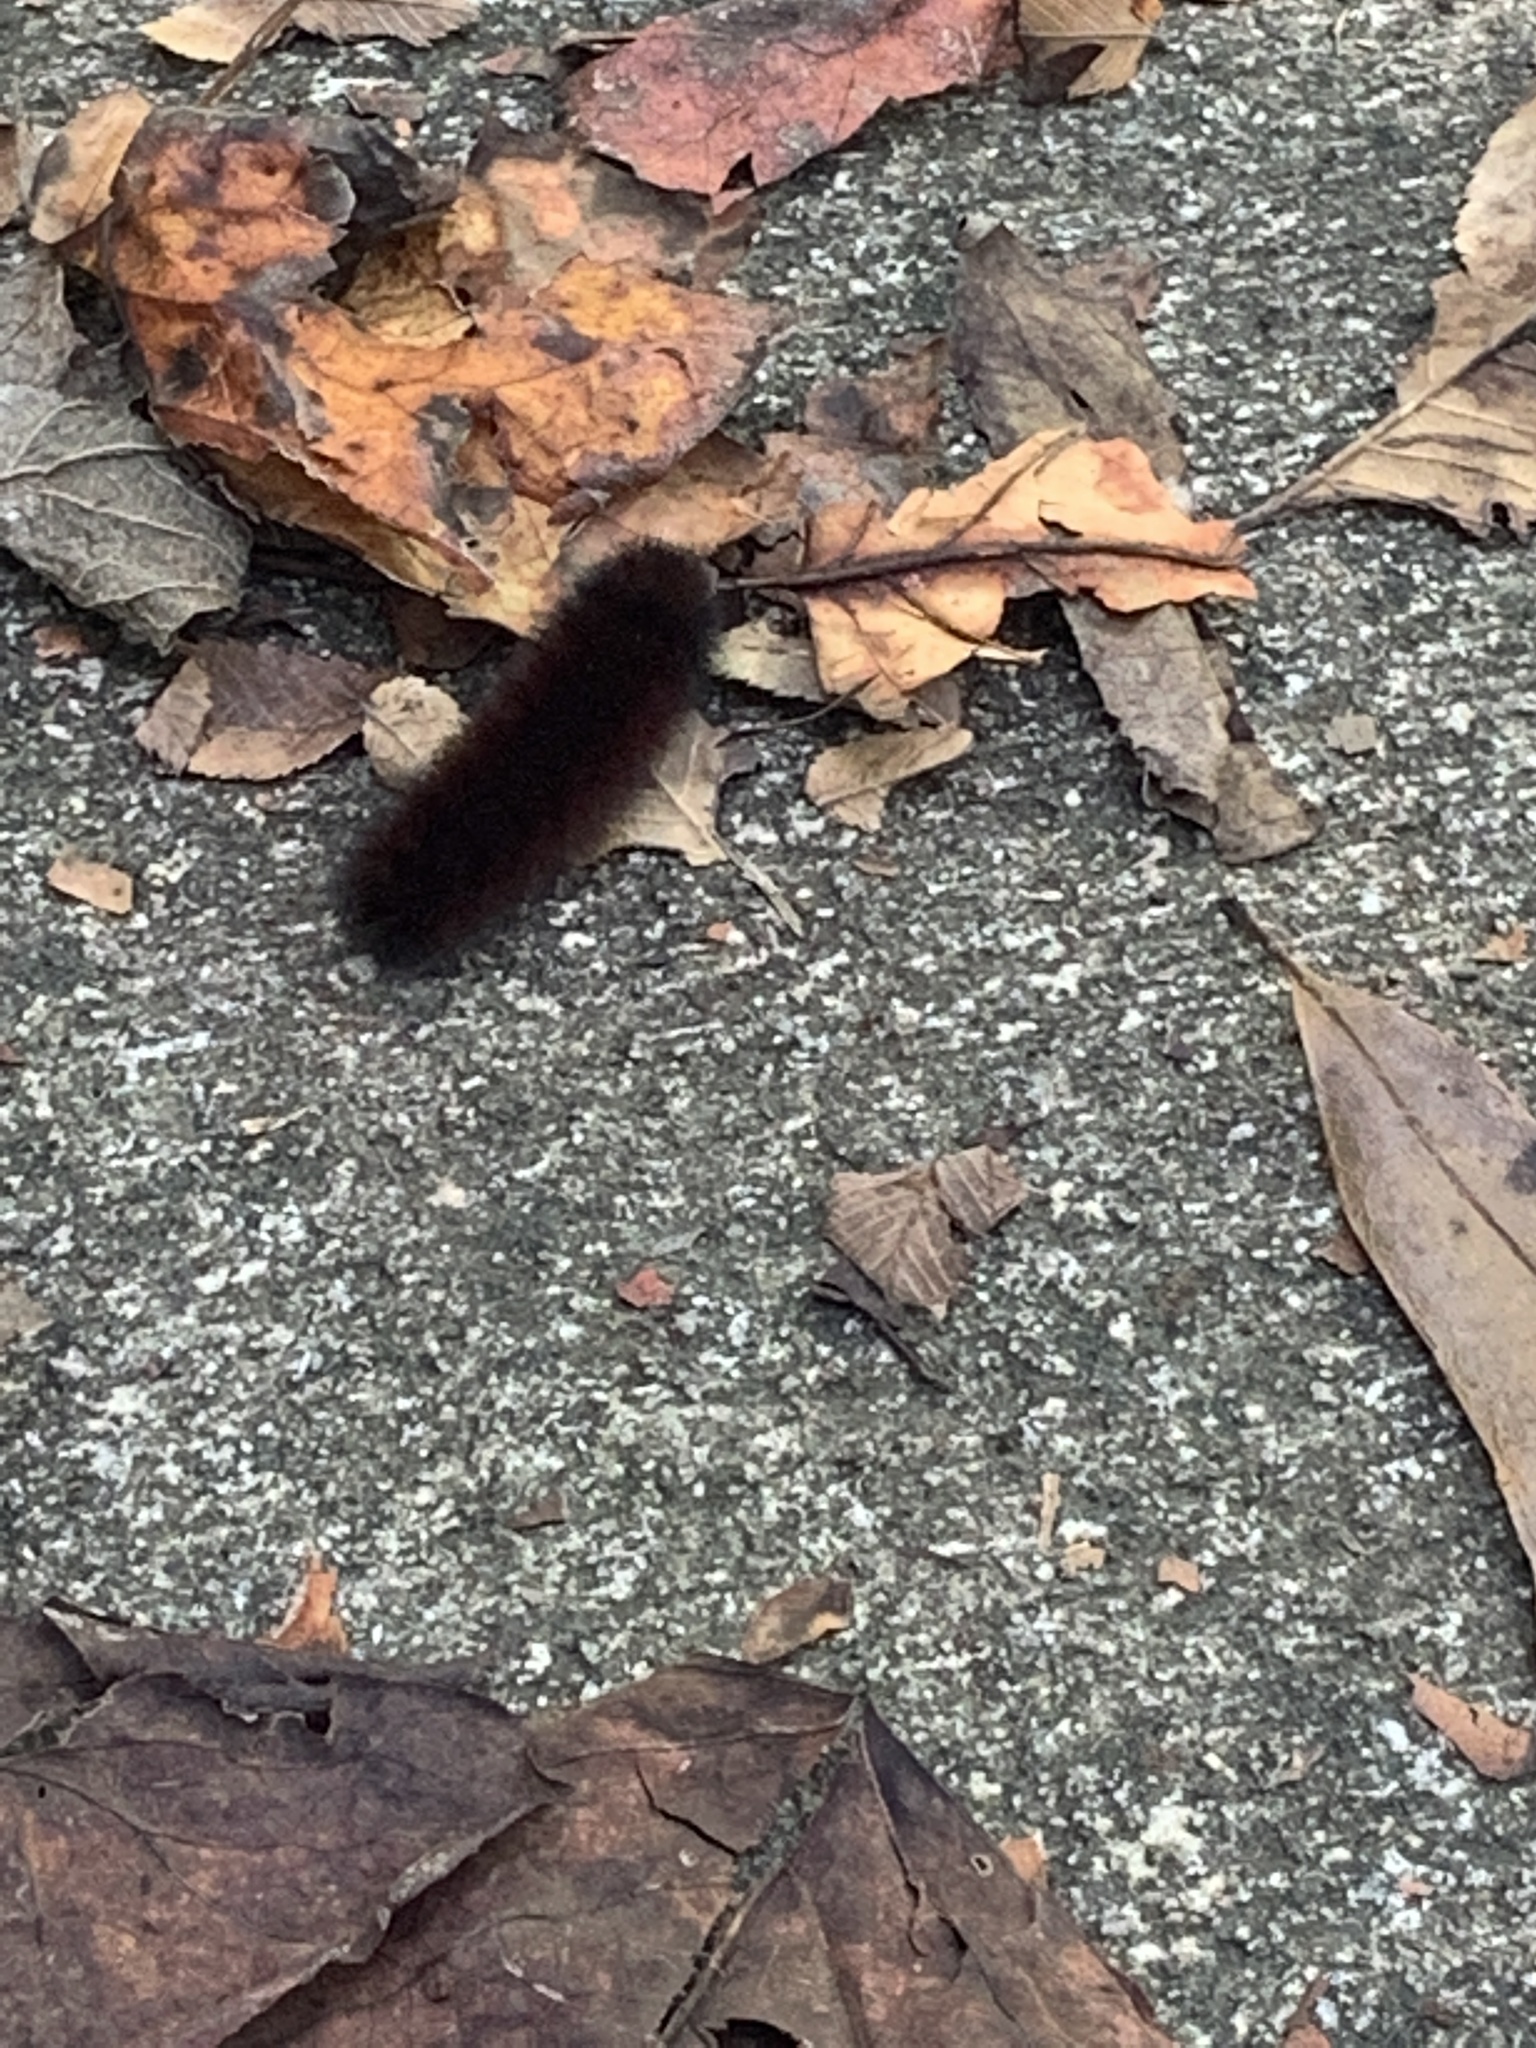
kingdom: Animalia
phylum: Arthropoda
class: Insecta
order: Lepidoptera
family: Erebidae
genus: Pyrrharctia
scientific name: Pyrrharctia isabella
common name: Isabella tiger moth
